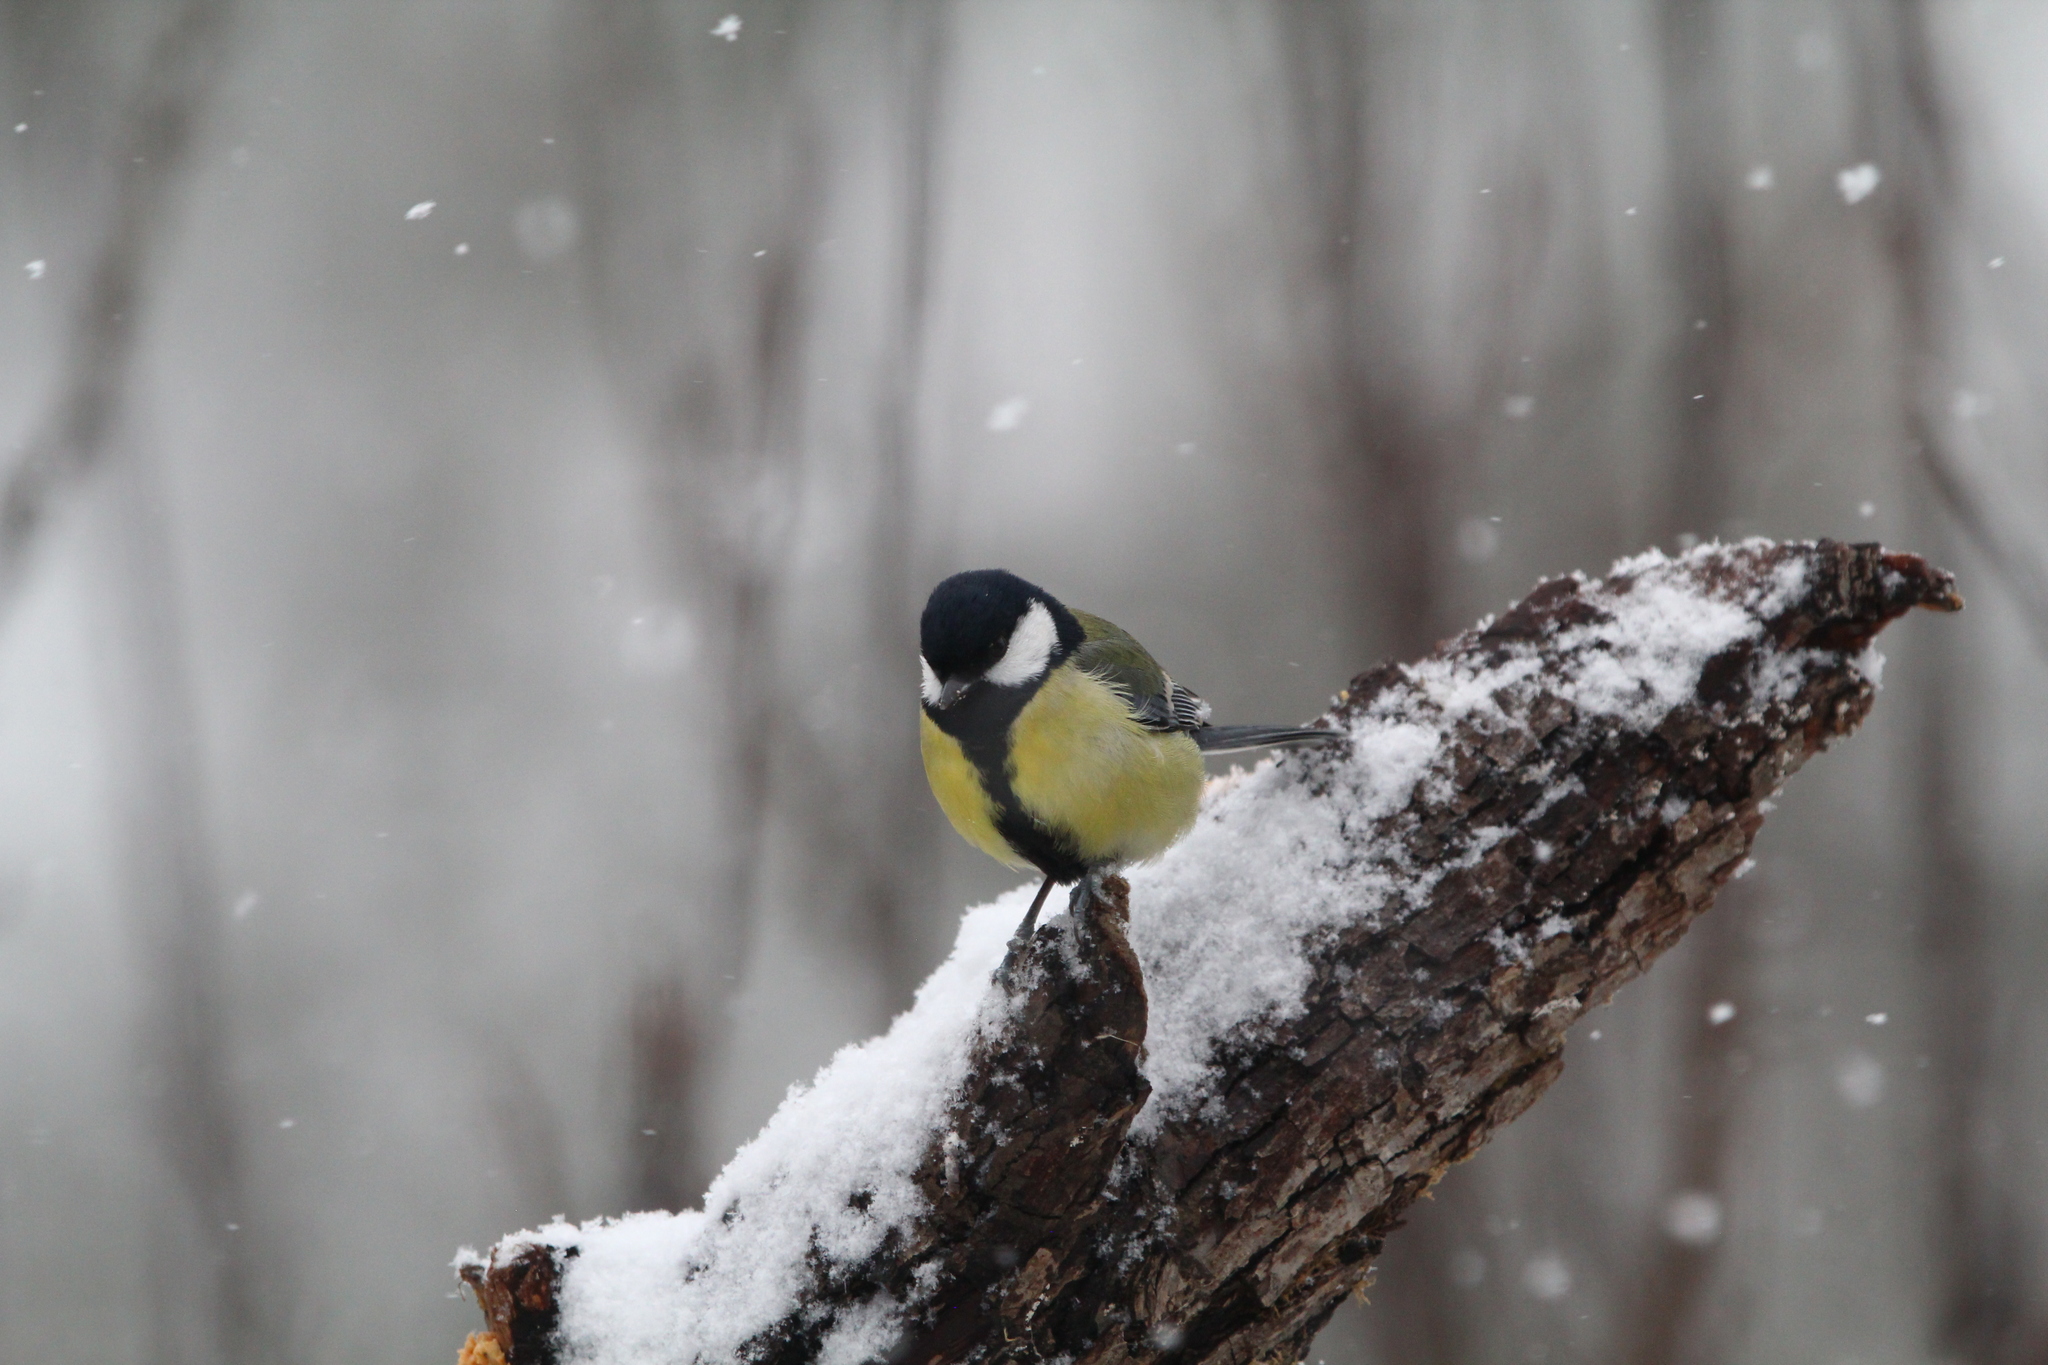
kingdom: Animalia
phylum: Chordata
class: Aves
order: Passeriformes
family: Paridae
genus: Parus
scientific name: Parus major
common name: Great tit
